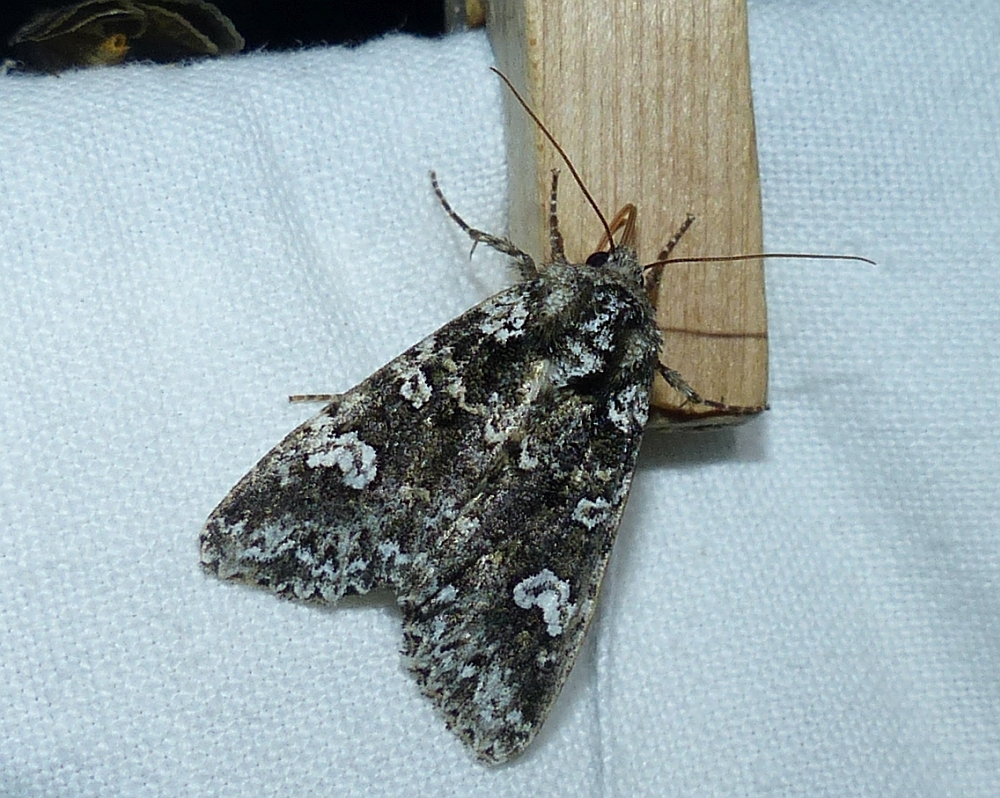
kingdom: Animalia
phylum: Arthropoda
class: Insecta
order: Lepidoptera
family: Noctuidae
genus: Melanchra
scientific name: Melanchra adjuncta
